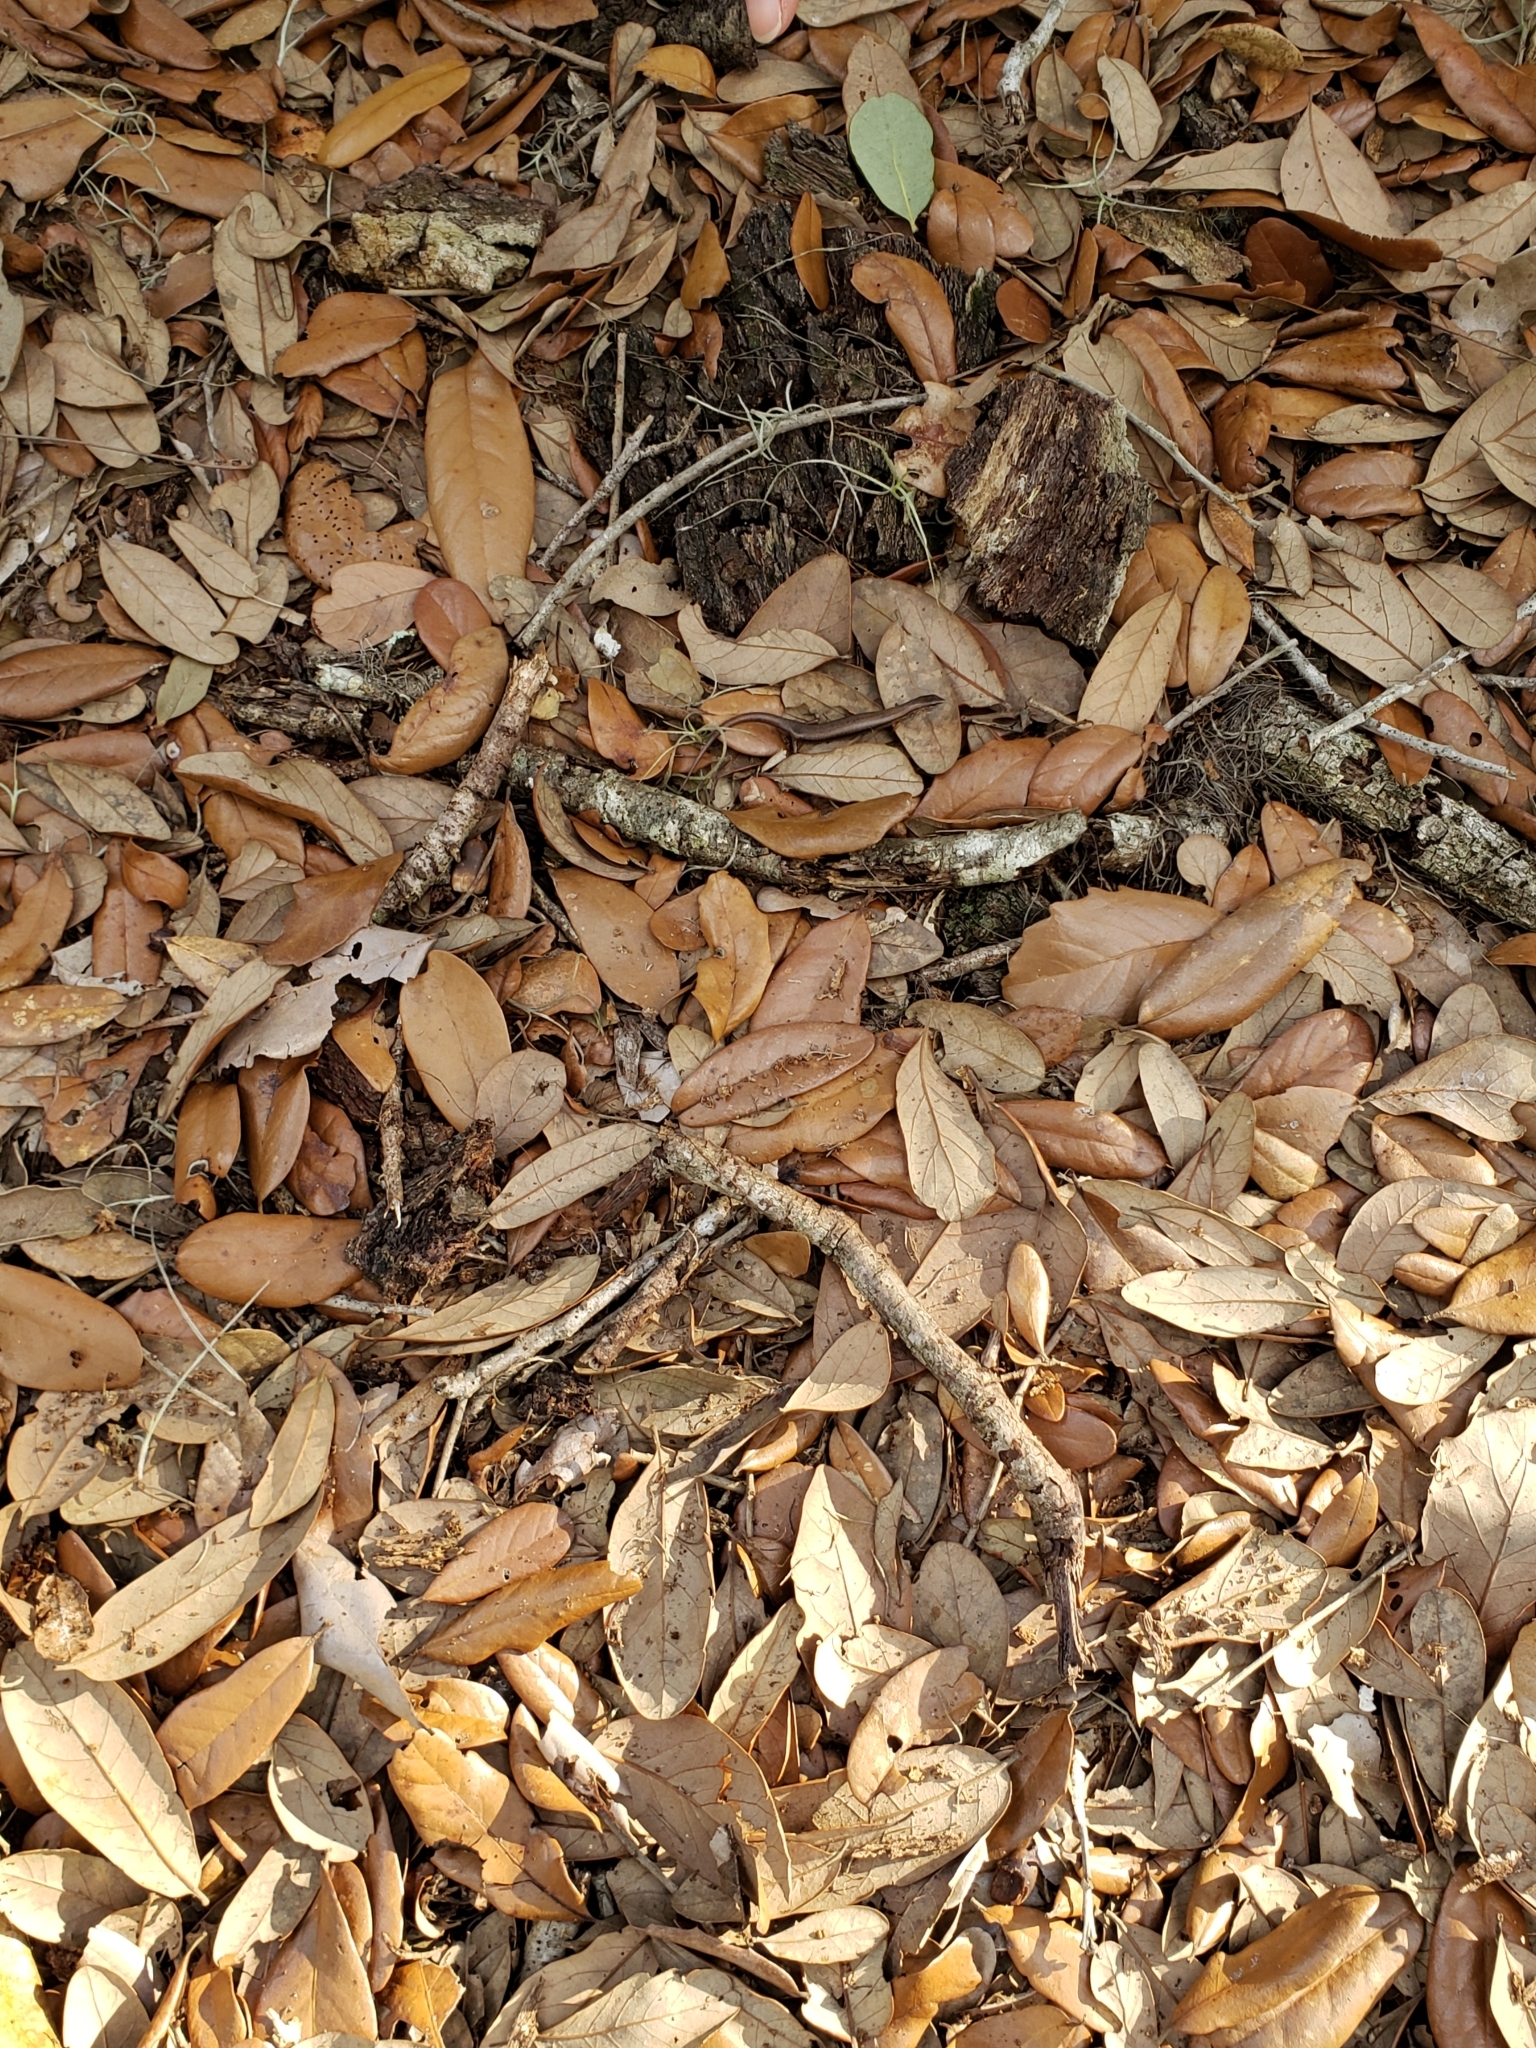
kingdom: Animalia
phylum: Chordata
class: Squamata
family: Scincidae
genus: Scincella
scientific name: Scincella lateralis
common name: Ground skink
